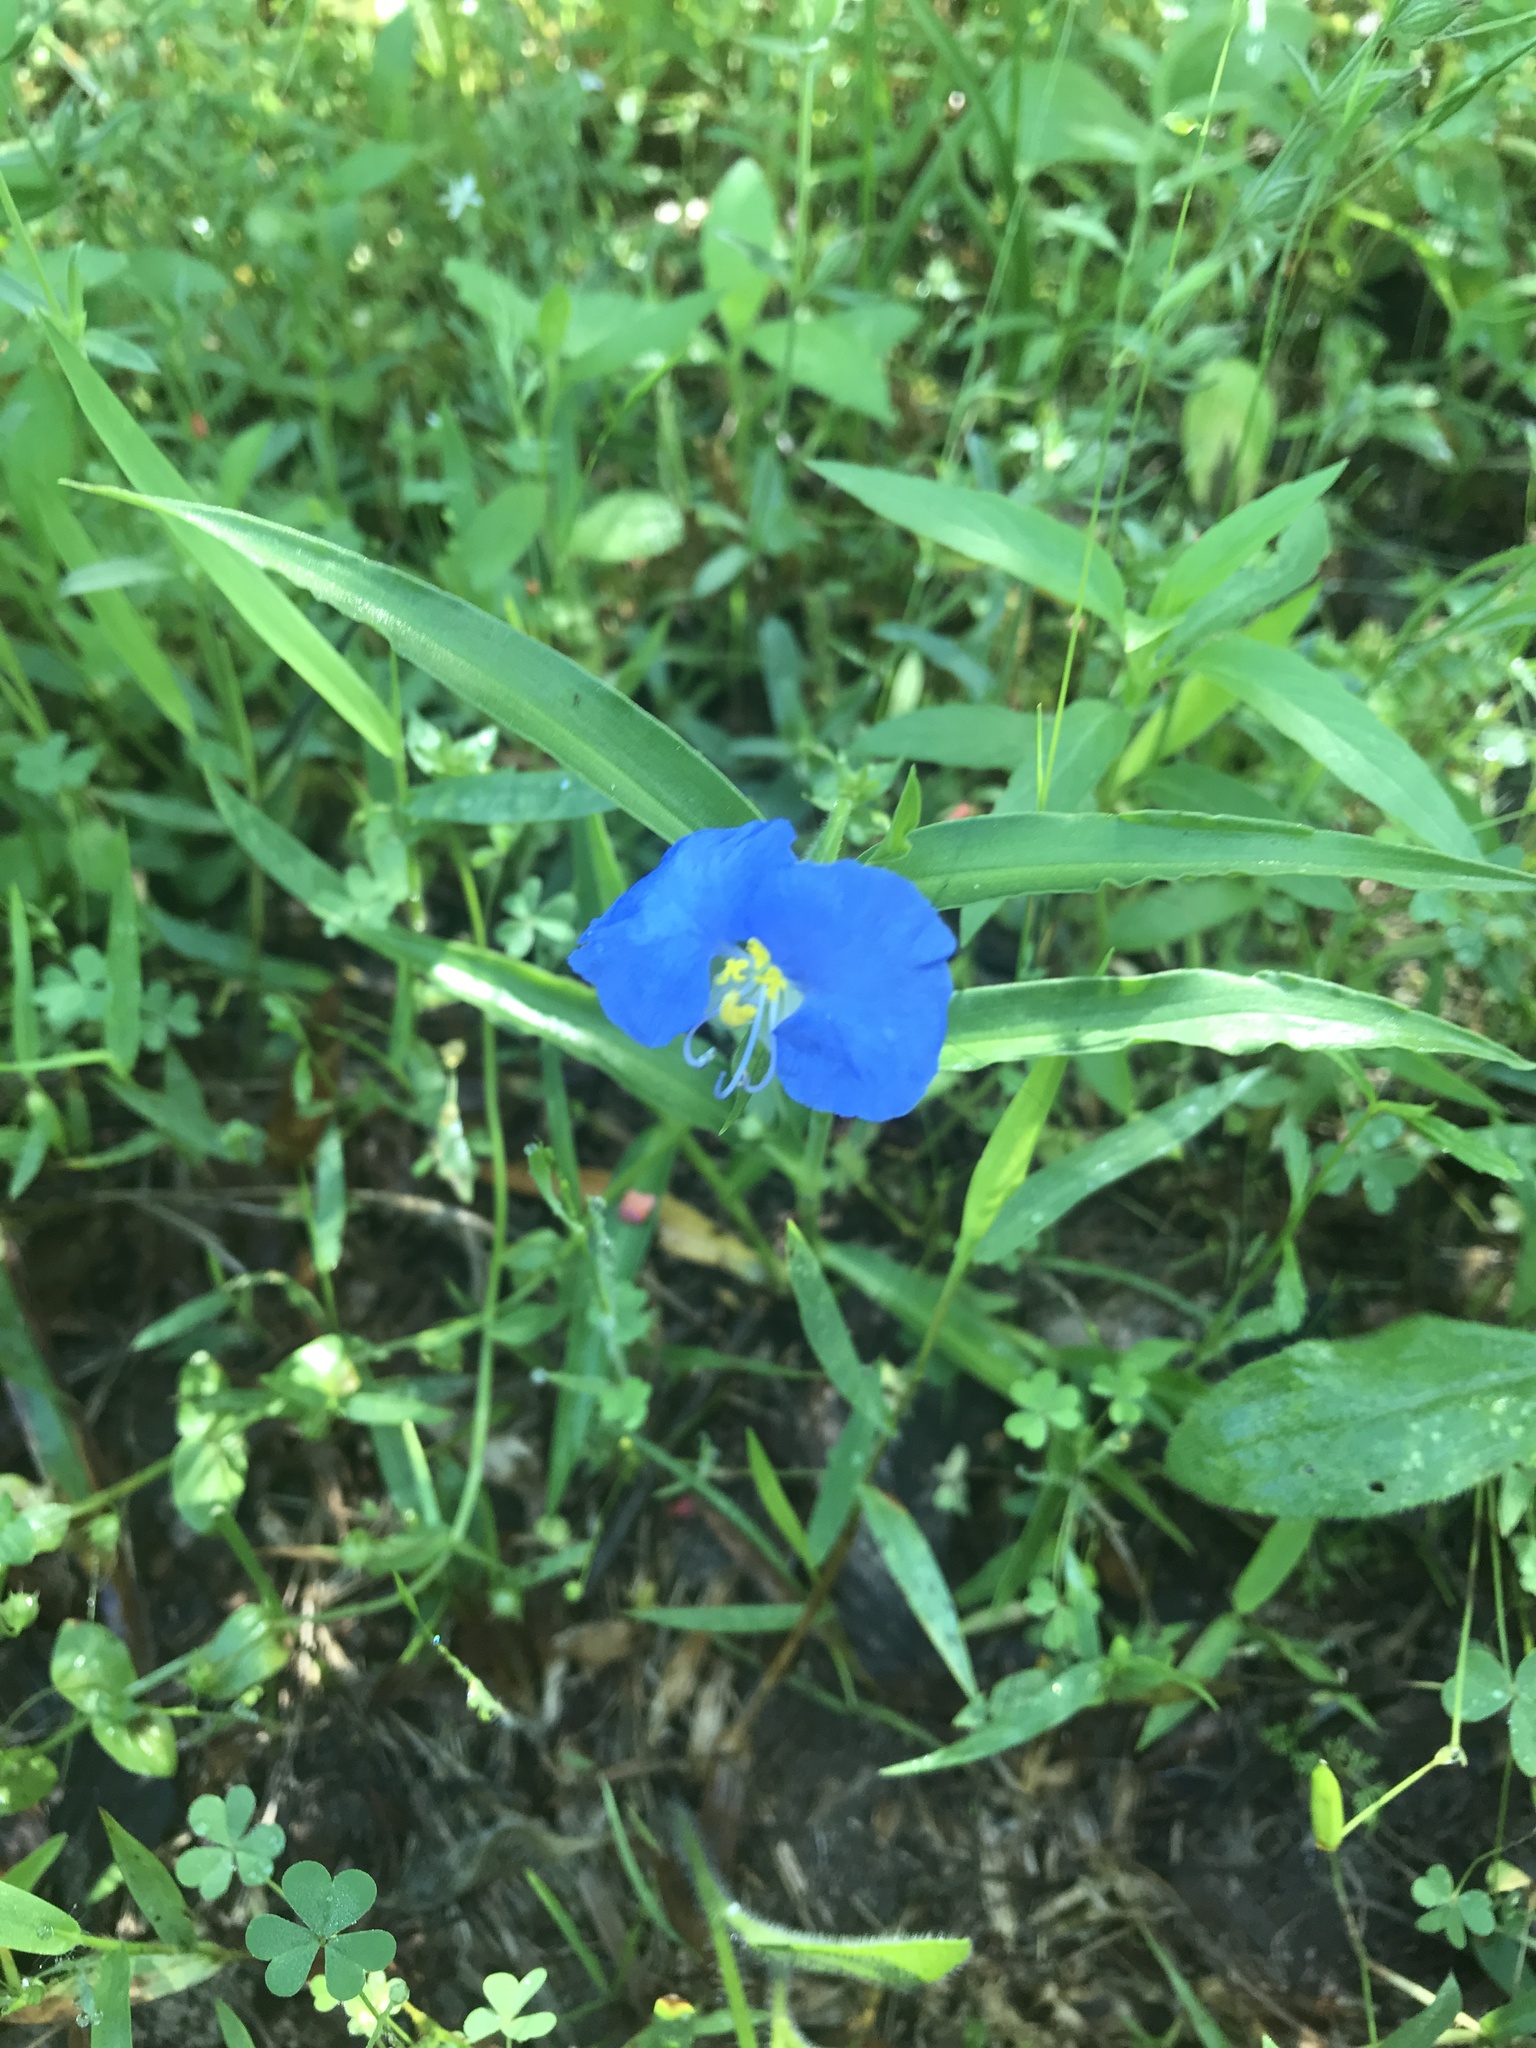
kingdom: Plantae
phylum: Tracheophyta
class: Liliopsida
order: Commelinales
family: Commelinaceae
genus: Commelina
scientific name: Commelina erecta
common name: Blousel blommetjie
